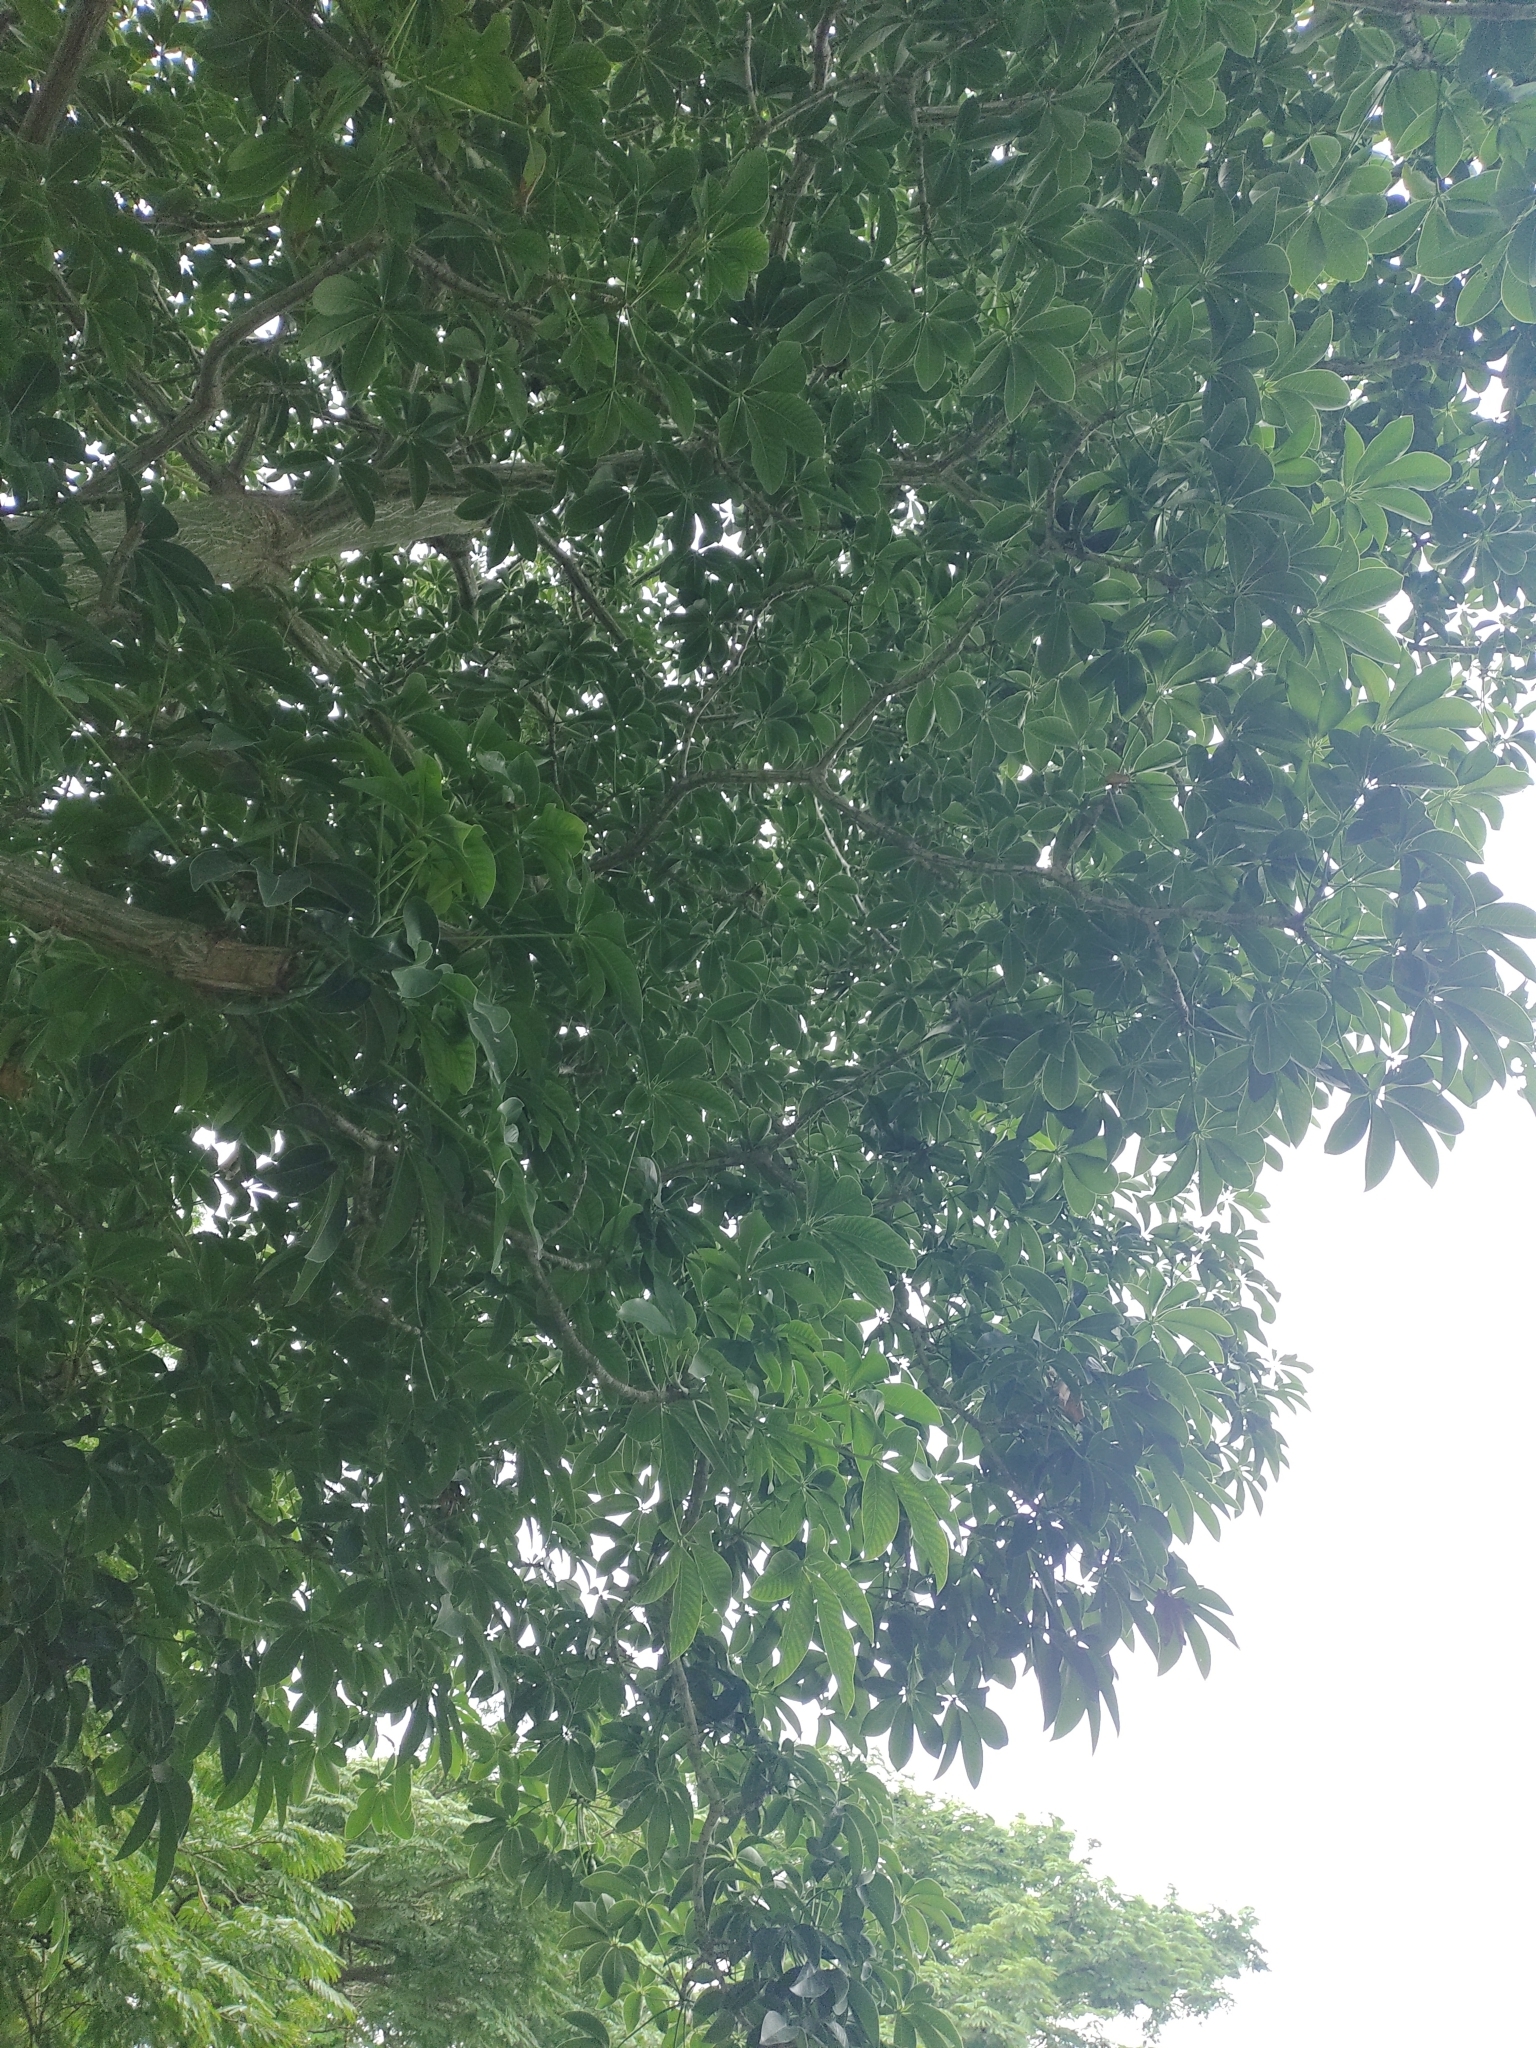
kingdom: Plantae
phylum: Tracheophyta
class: Magnoliopsida
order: Malvales
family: Malvaceae
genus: Pseudobombax
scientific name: Pseudobombax septenatum
